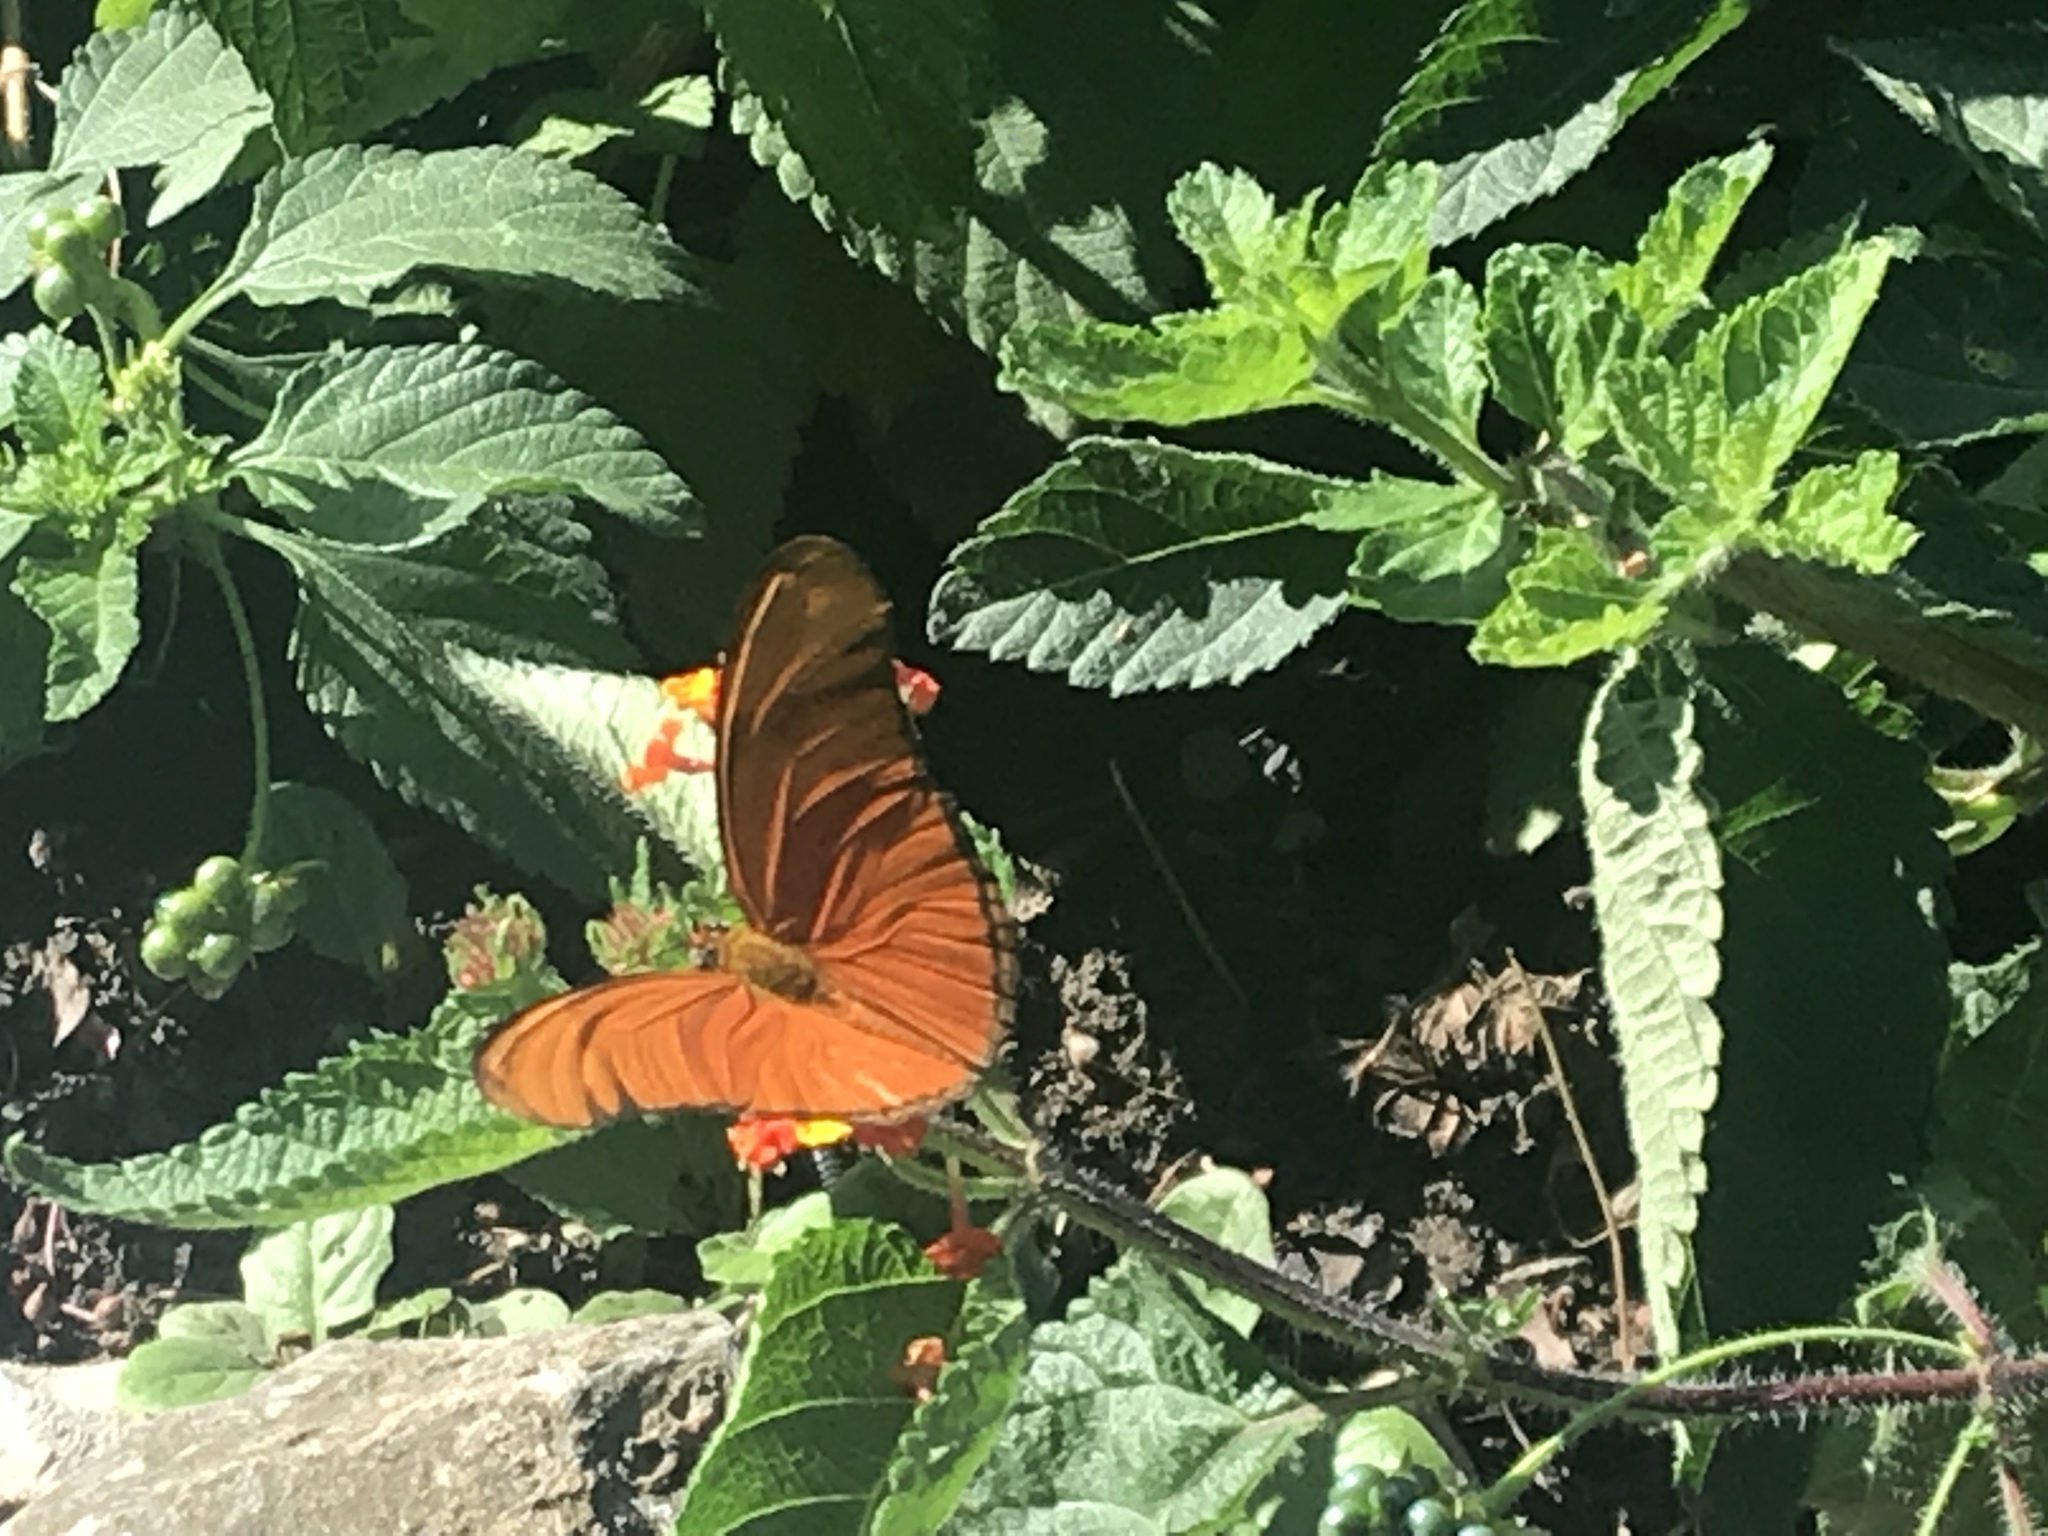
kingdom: Animalia
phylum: Arthropoda
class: Insecta
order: Lepidoptera
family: Nymphalidae
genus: Dryas
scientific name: Dryas iulia
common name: Flambeau
